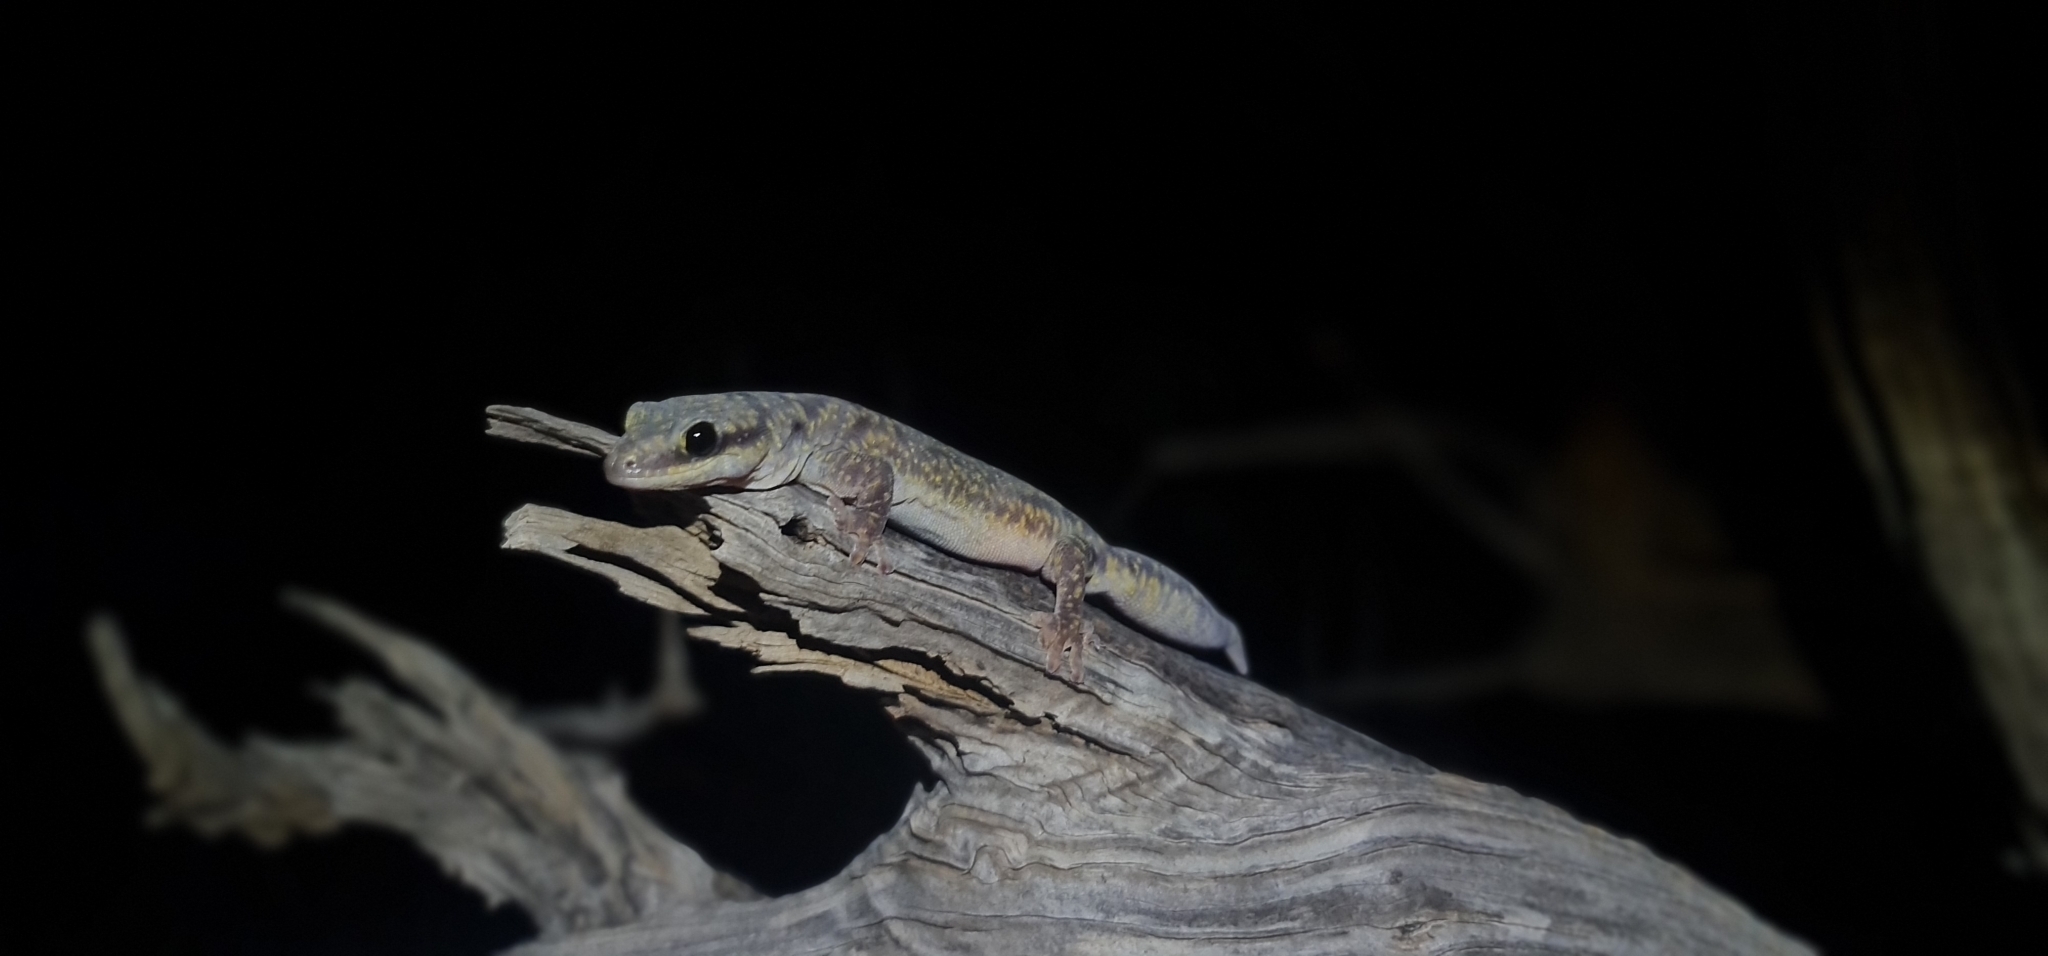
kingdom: Animalia
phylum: Chordata
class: Squamata
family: Diplodactylidae
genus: Oedura
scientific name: Oedura cincta
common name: Inland marbled velvet gecko
